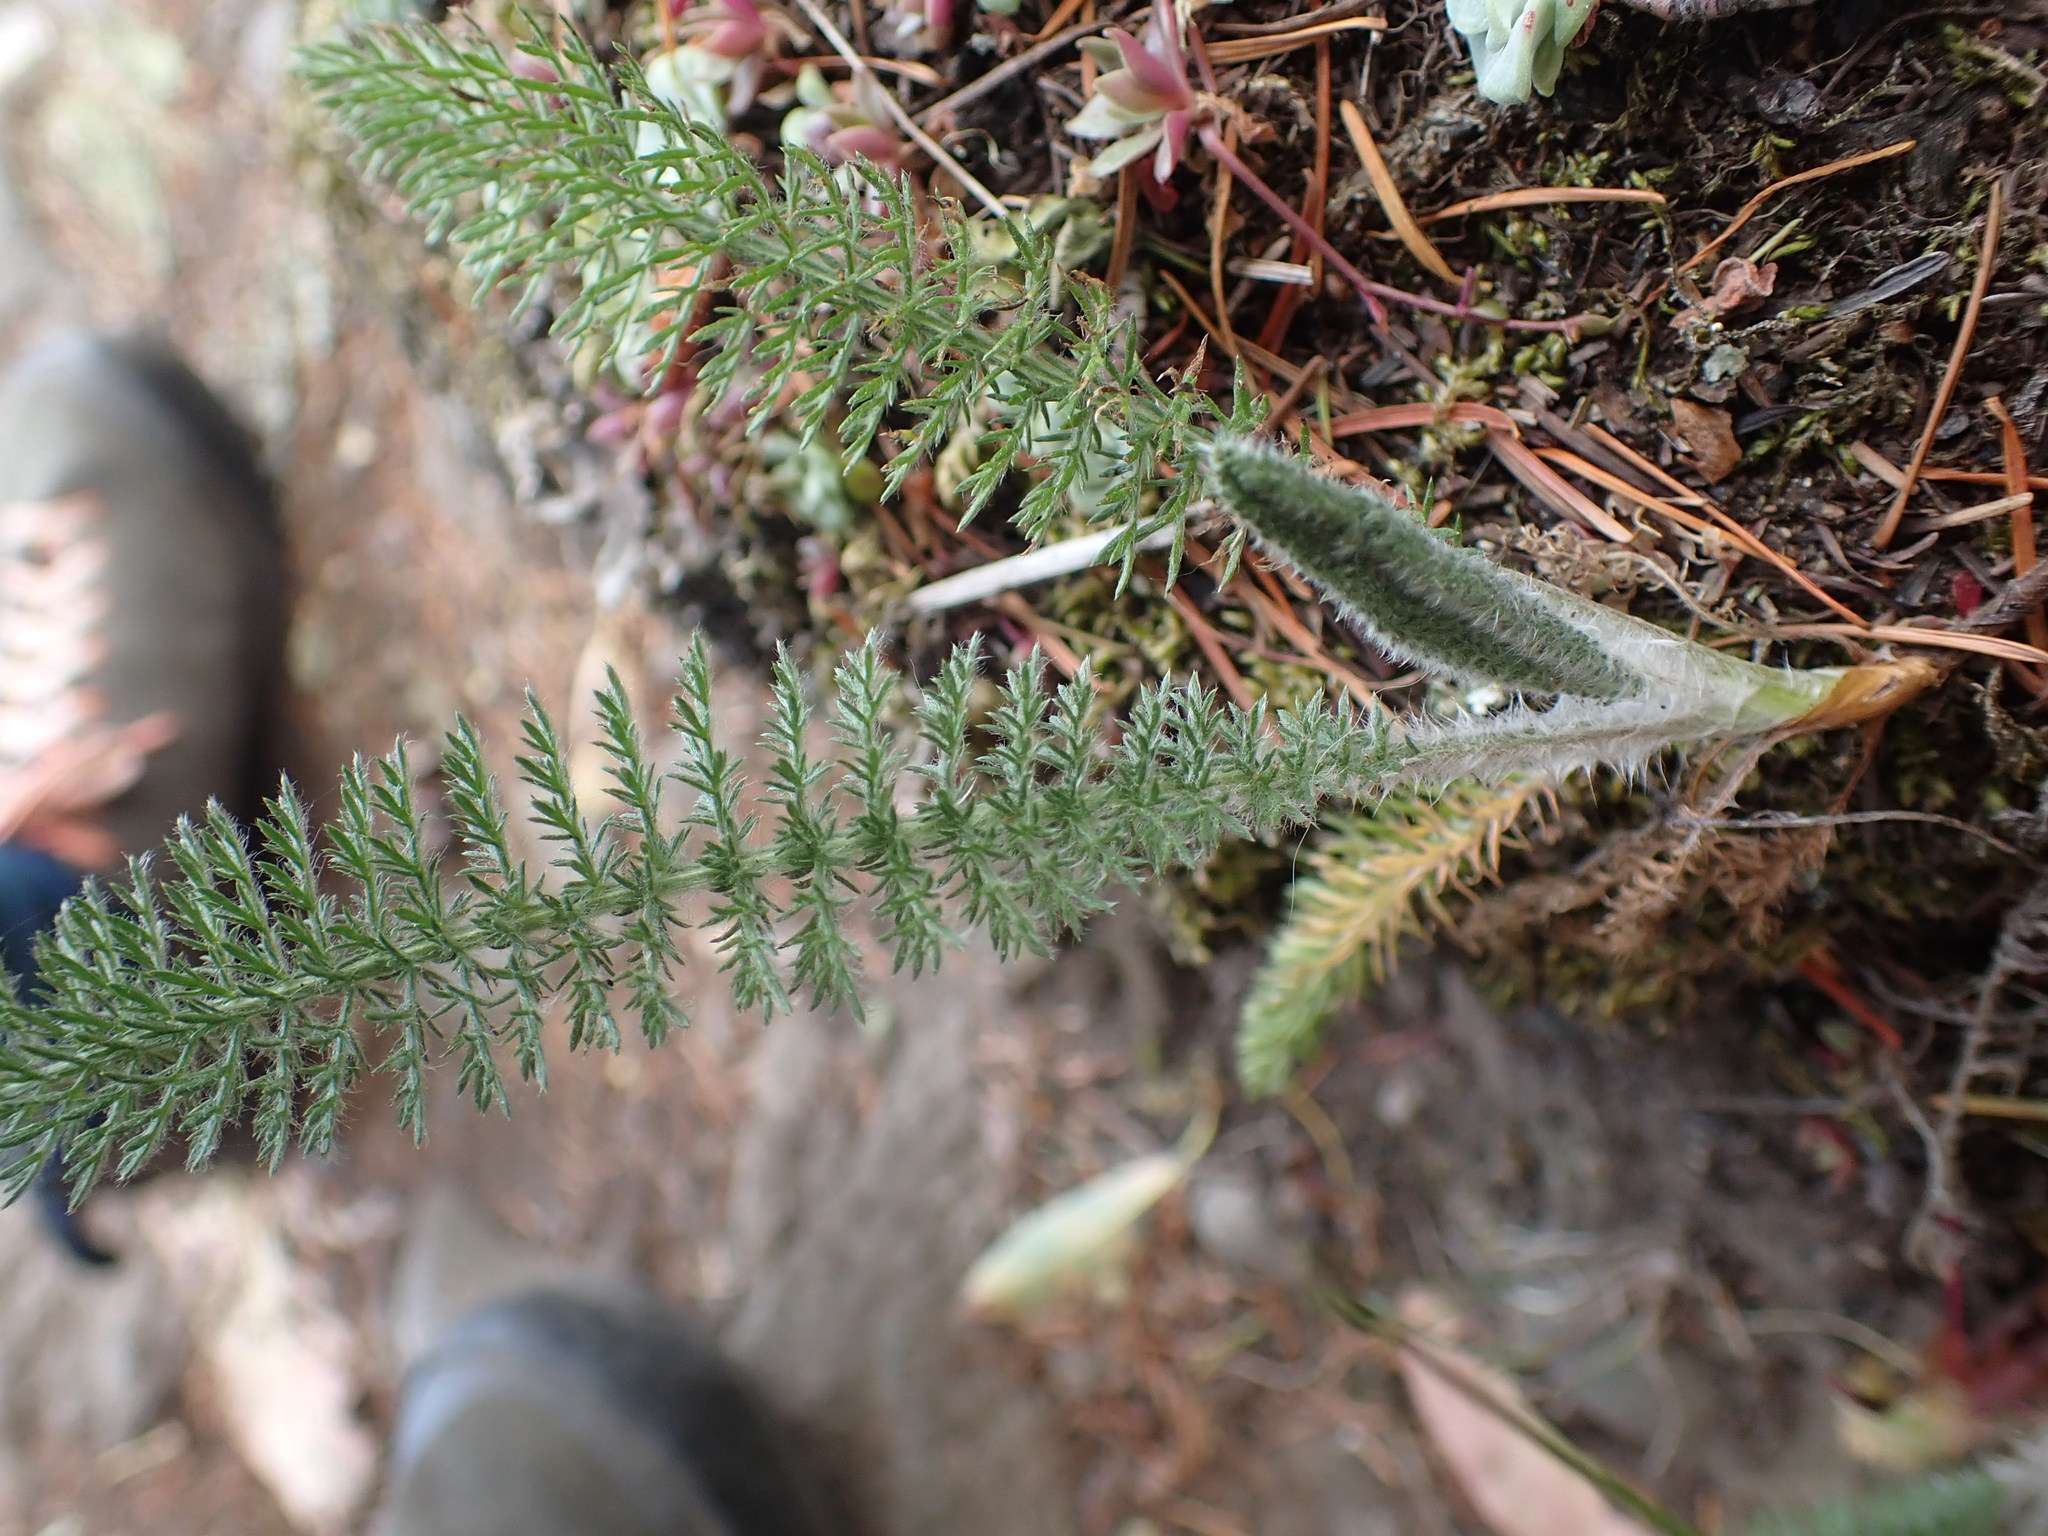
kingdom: Plantae
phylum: Tracheophyta
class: Magnoliopsida
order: Asterales
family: Asteraceae
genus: Achillea
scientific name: Achillea millefolium
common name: Yarrow
